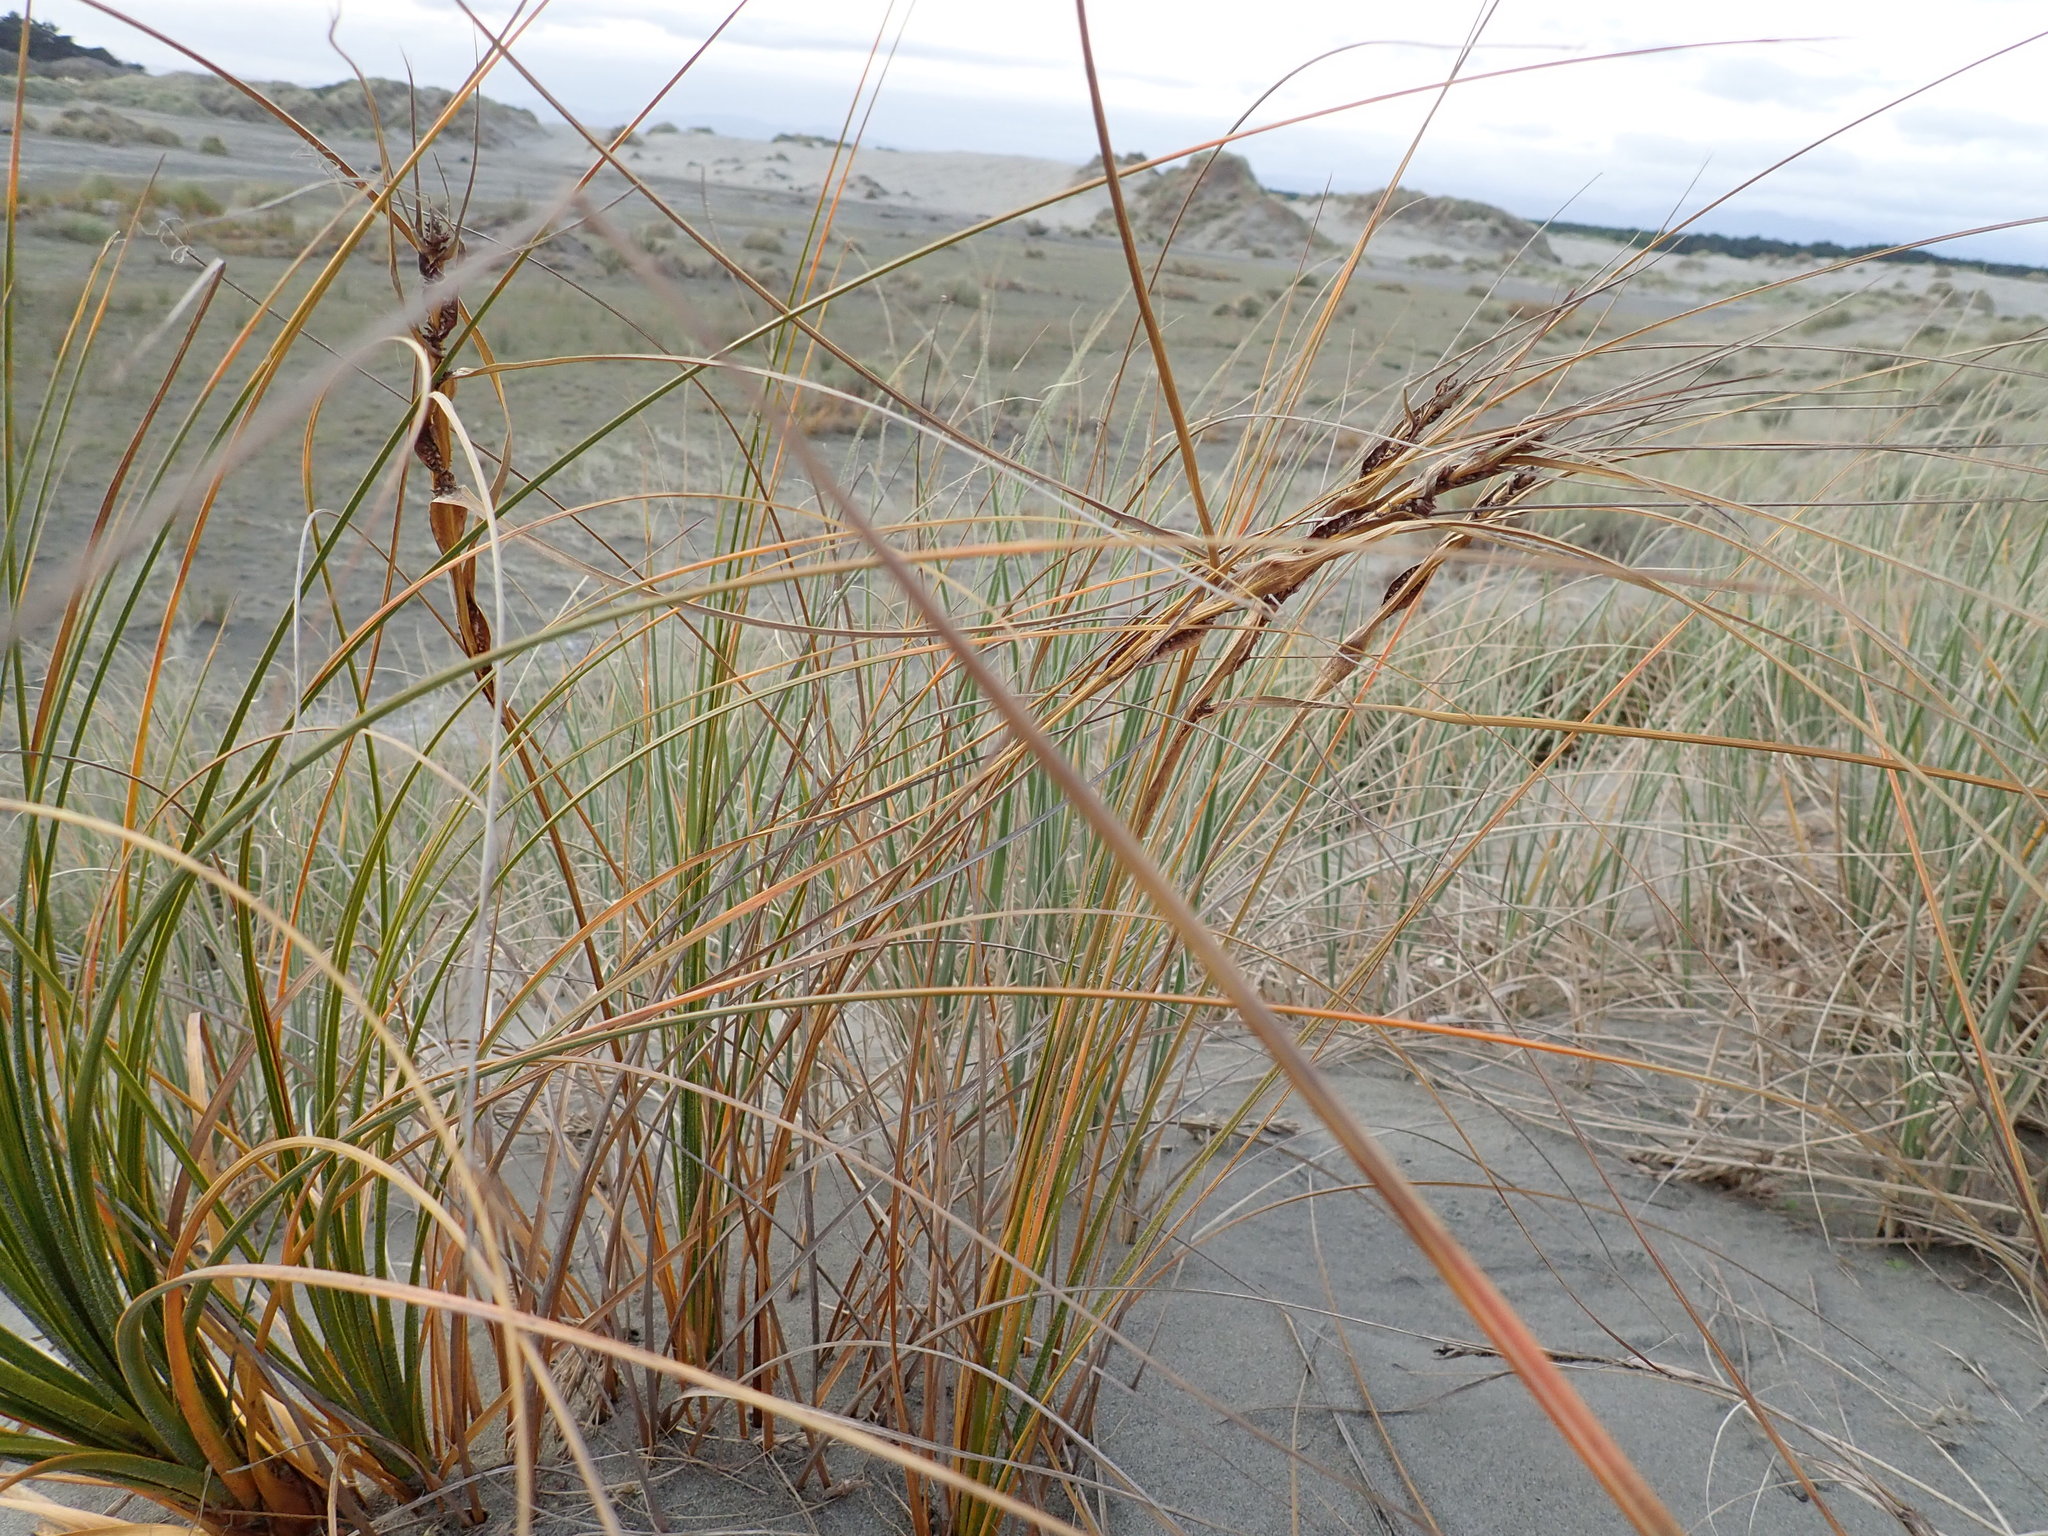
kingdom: Plantae
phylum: Tracheophyta
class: Liliopsida
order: Poales
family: Cyperaceae
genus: Ficinia
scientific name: Ficinia spiralis
